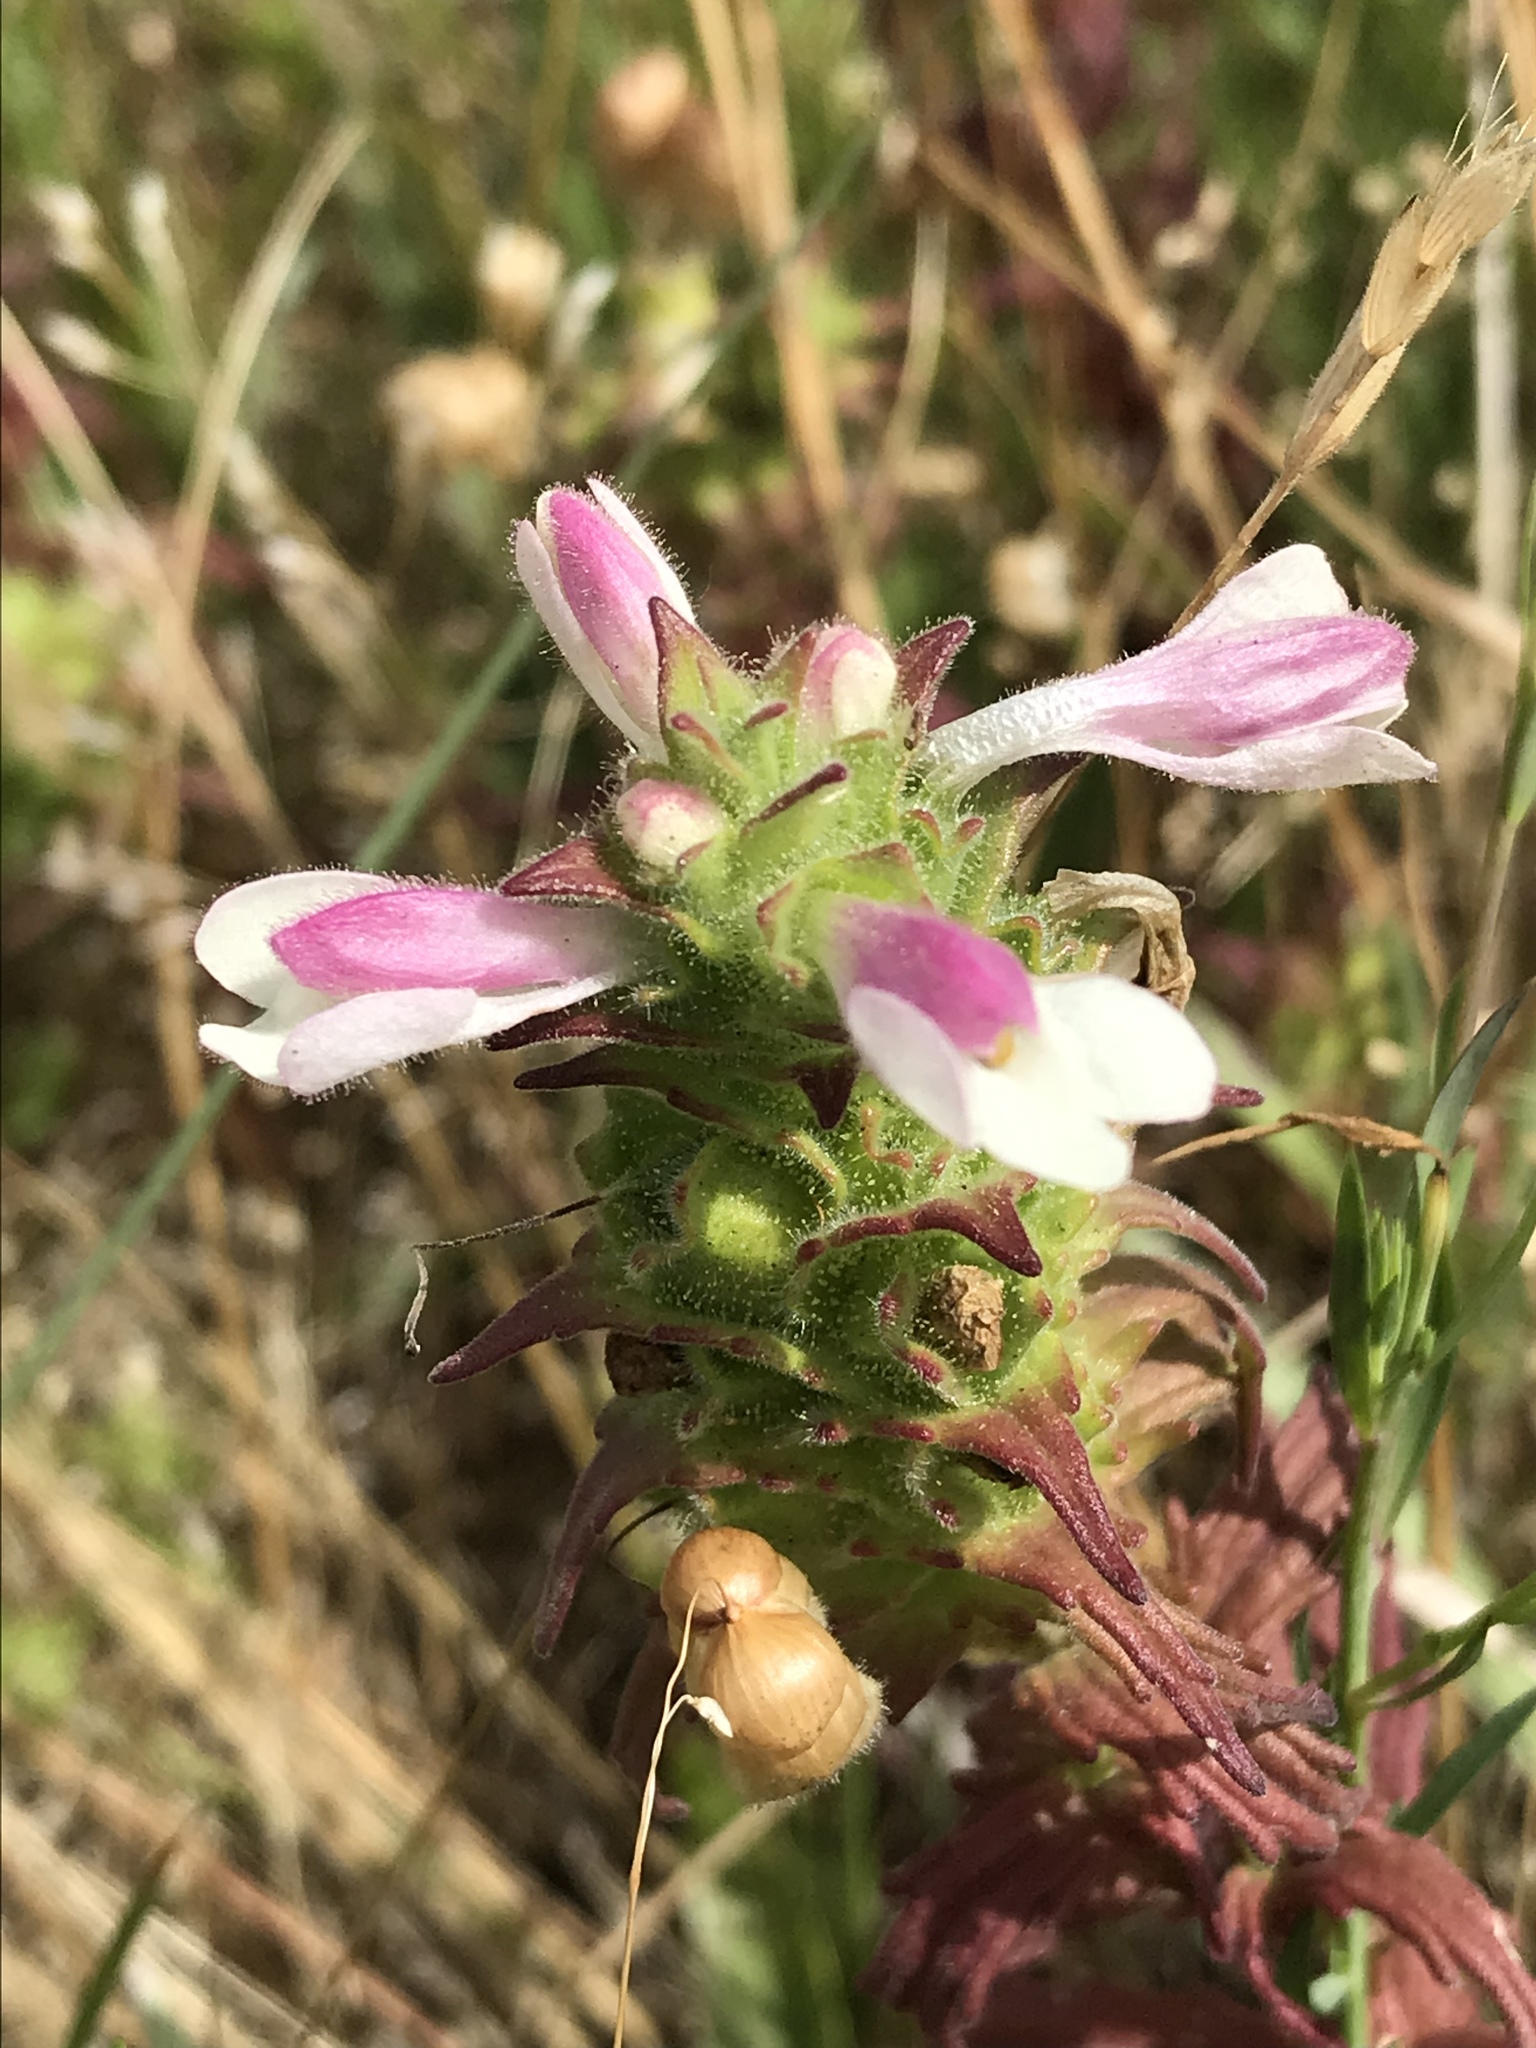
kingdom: Plantae
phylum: Tracheophyta
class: Magnoliopsida
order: Lamiales
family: Orobanchaceae
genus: Bellardia
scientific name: Bellardia trixago
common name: Mediterranean lineseed
